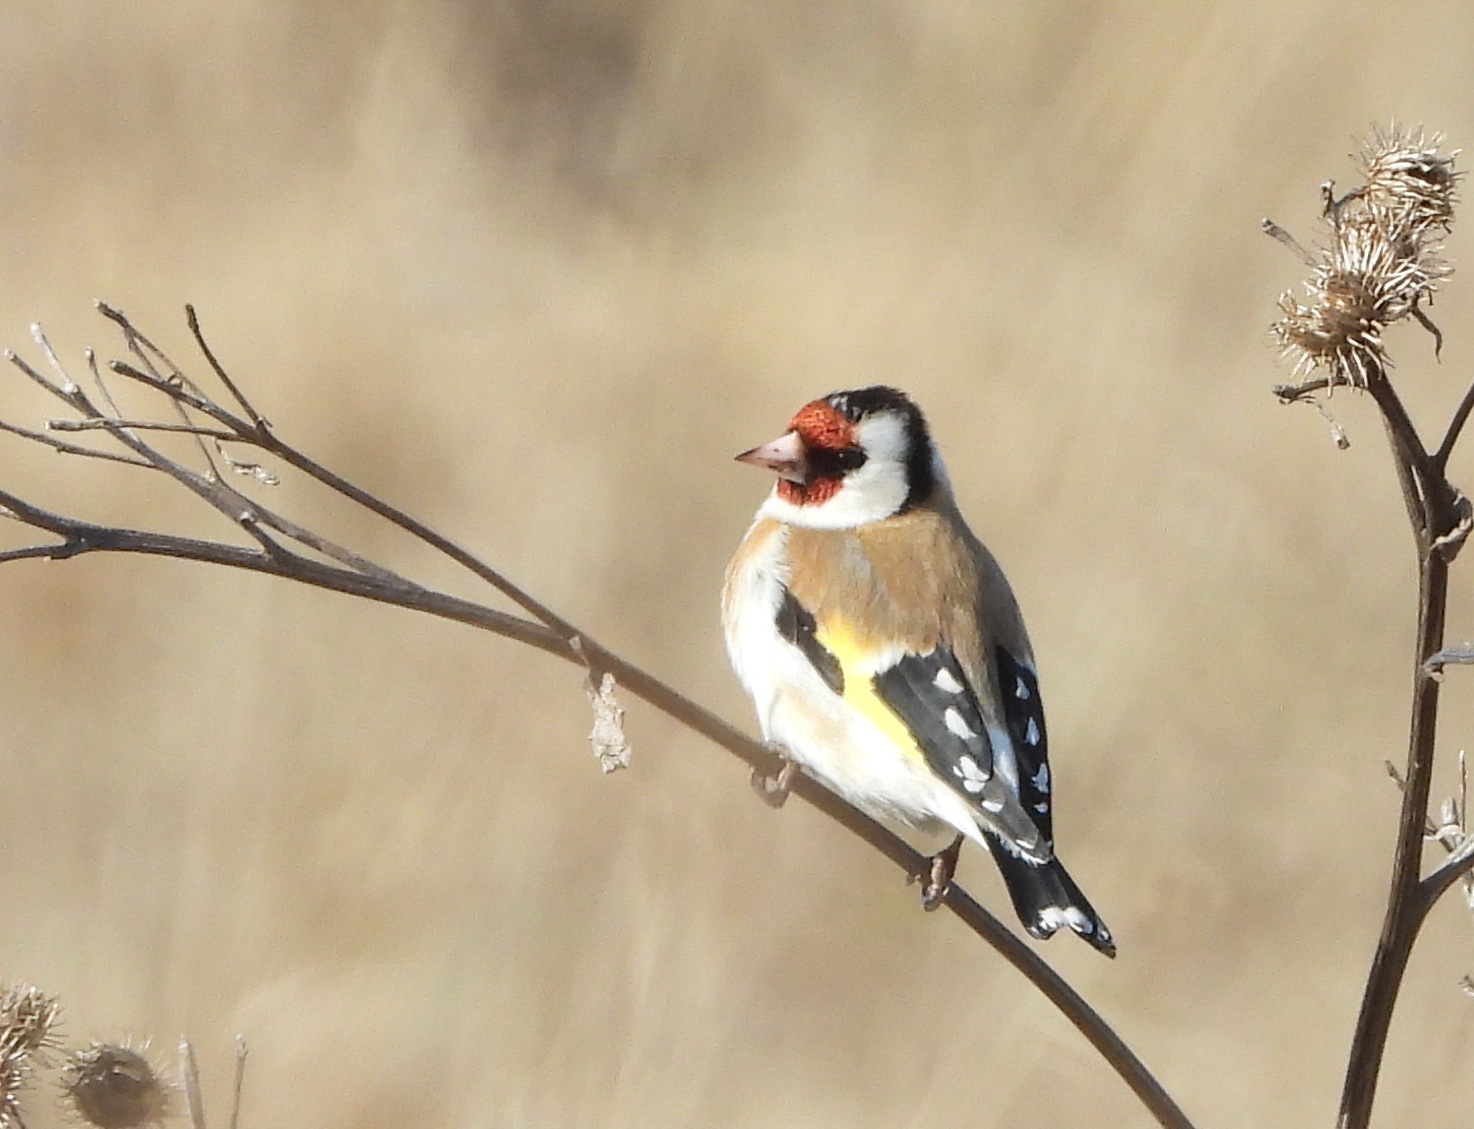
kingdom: Animalia
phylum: Chordata
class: Aves
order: Passeriformes
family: Fringillidae
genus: Carduelis
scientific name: Carduelis carduelis
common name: European goldfinch
